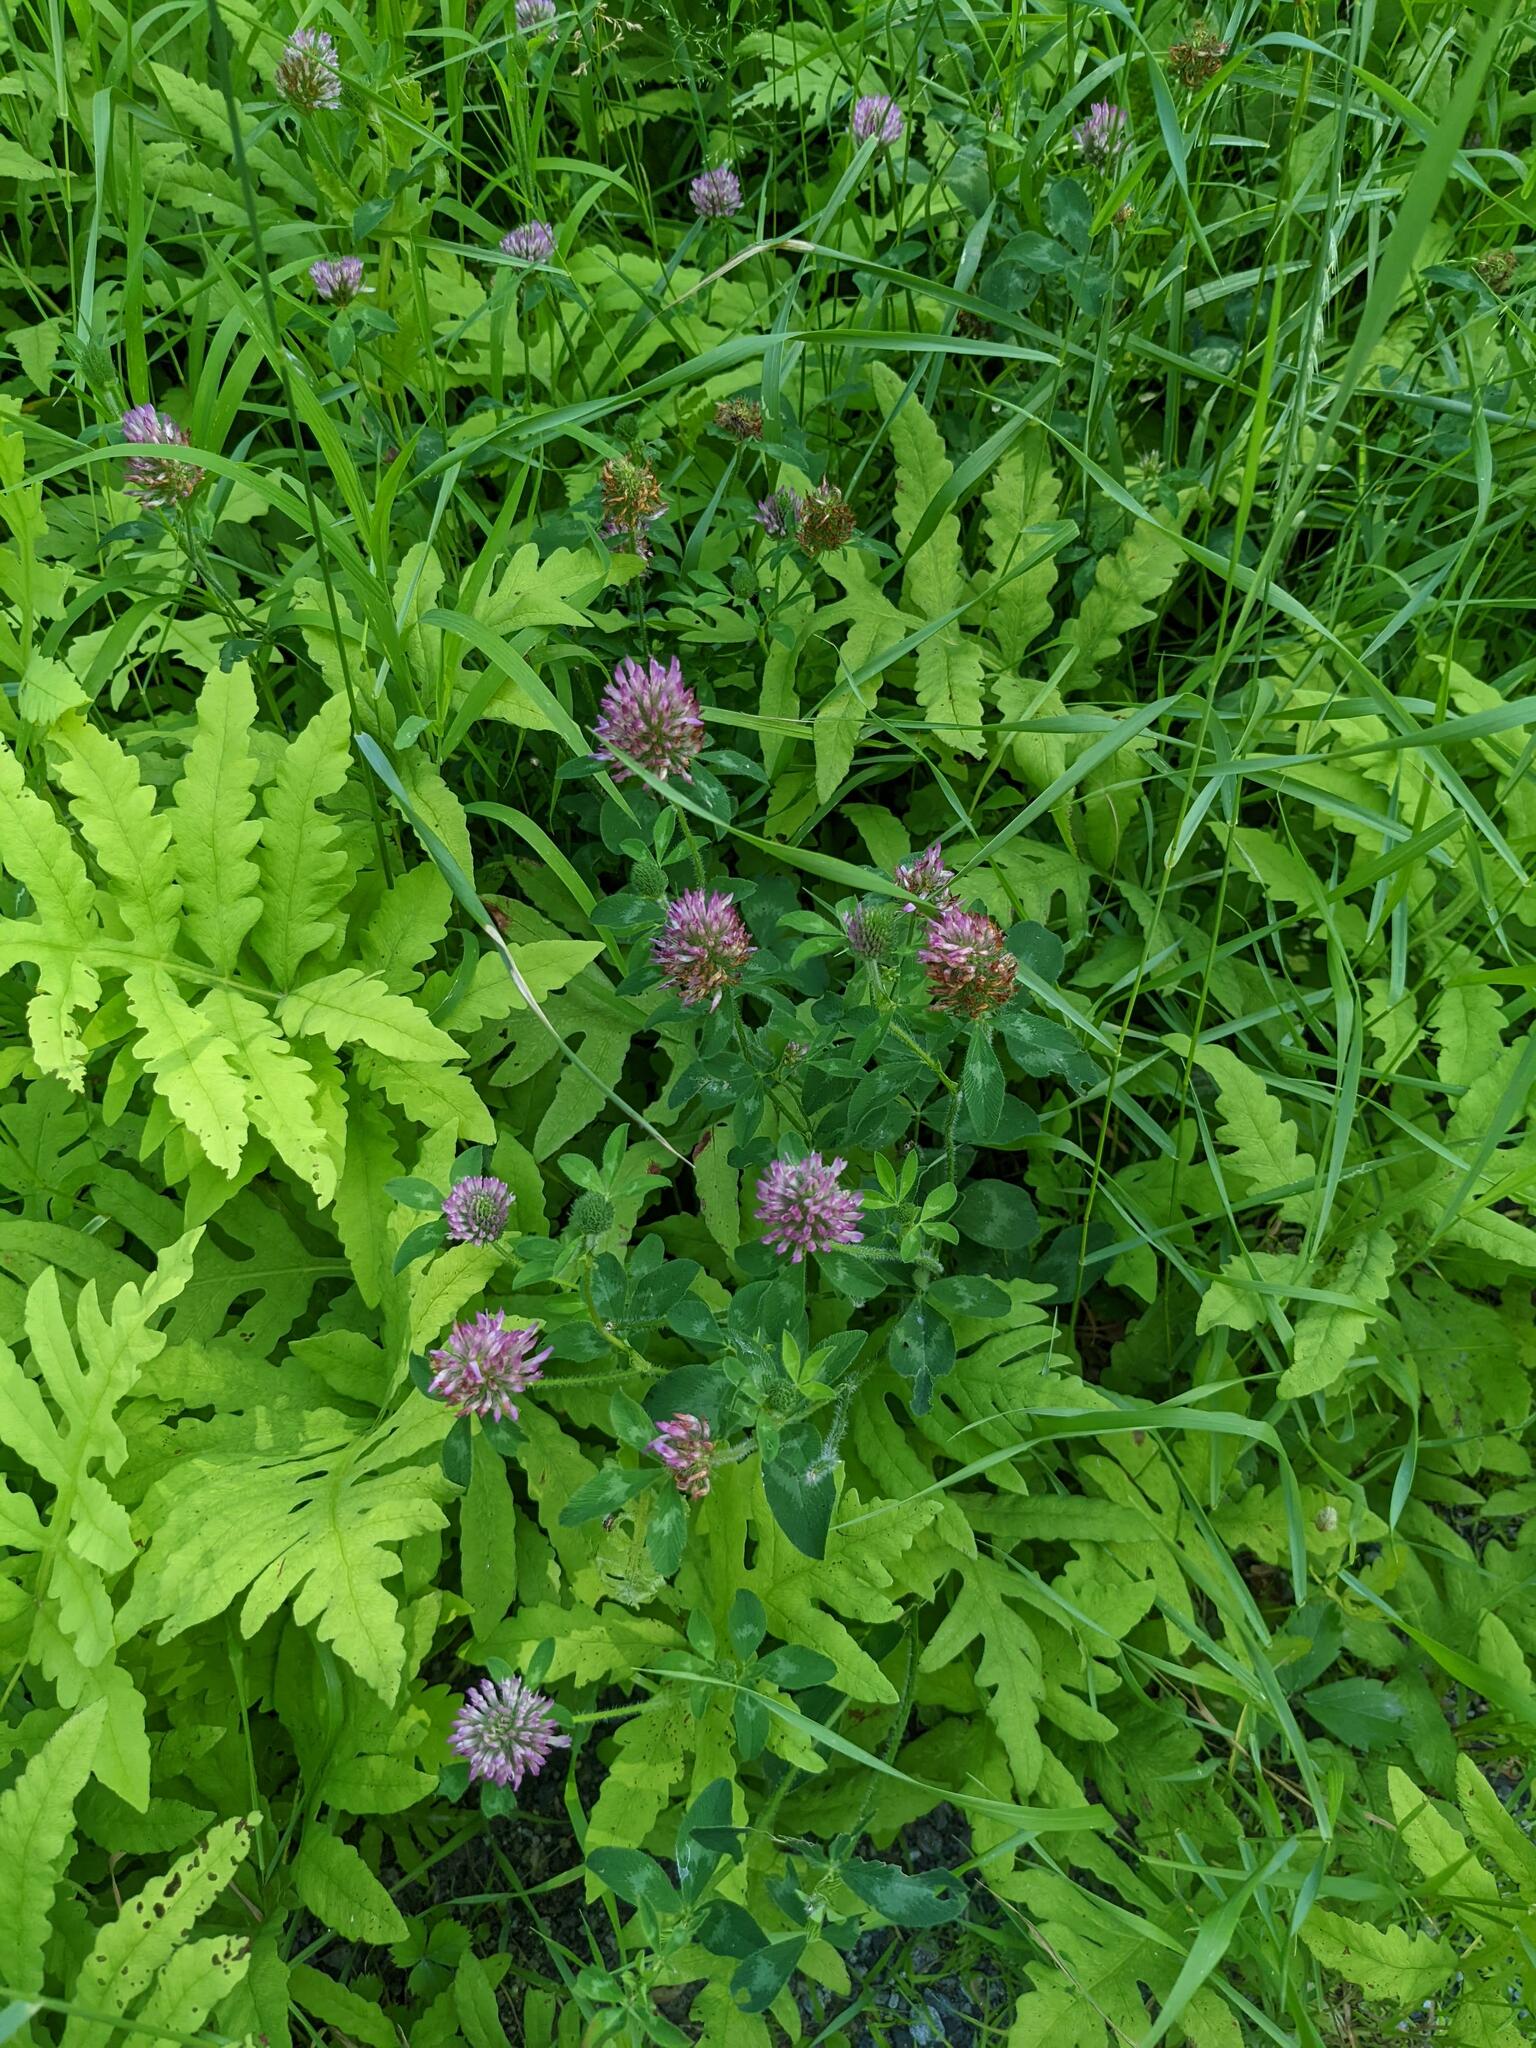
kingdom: Plantae
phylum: Tracheophyta
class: Magnoliopsida
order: Fabales
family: Fabaceae
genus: Trifolium
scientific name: Trifolium pratense
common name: Red clover
